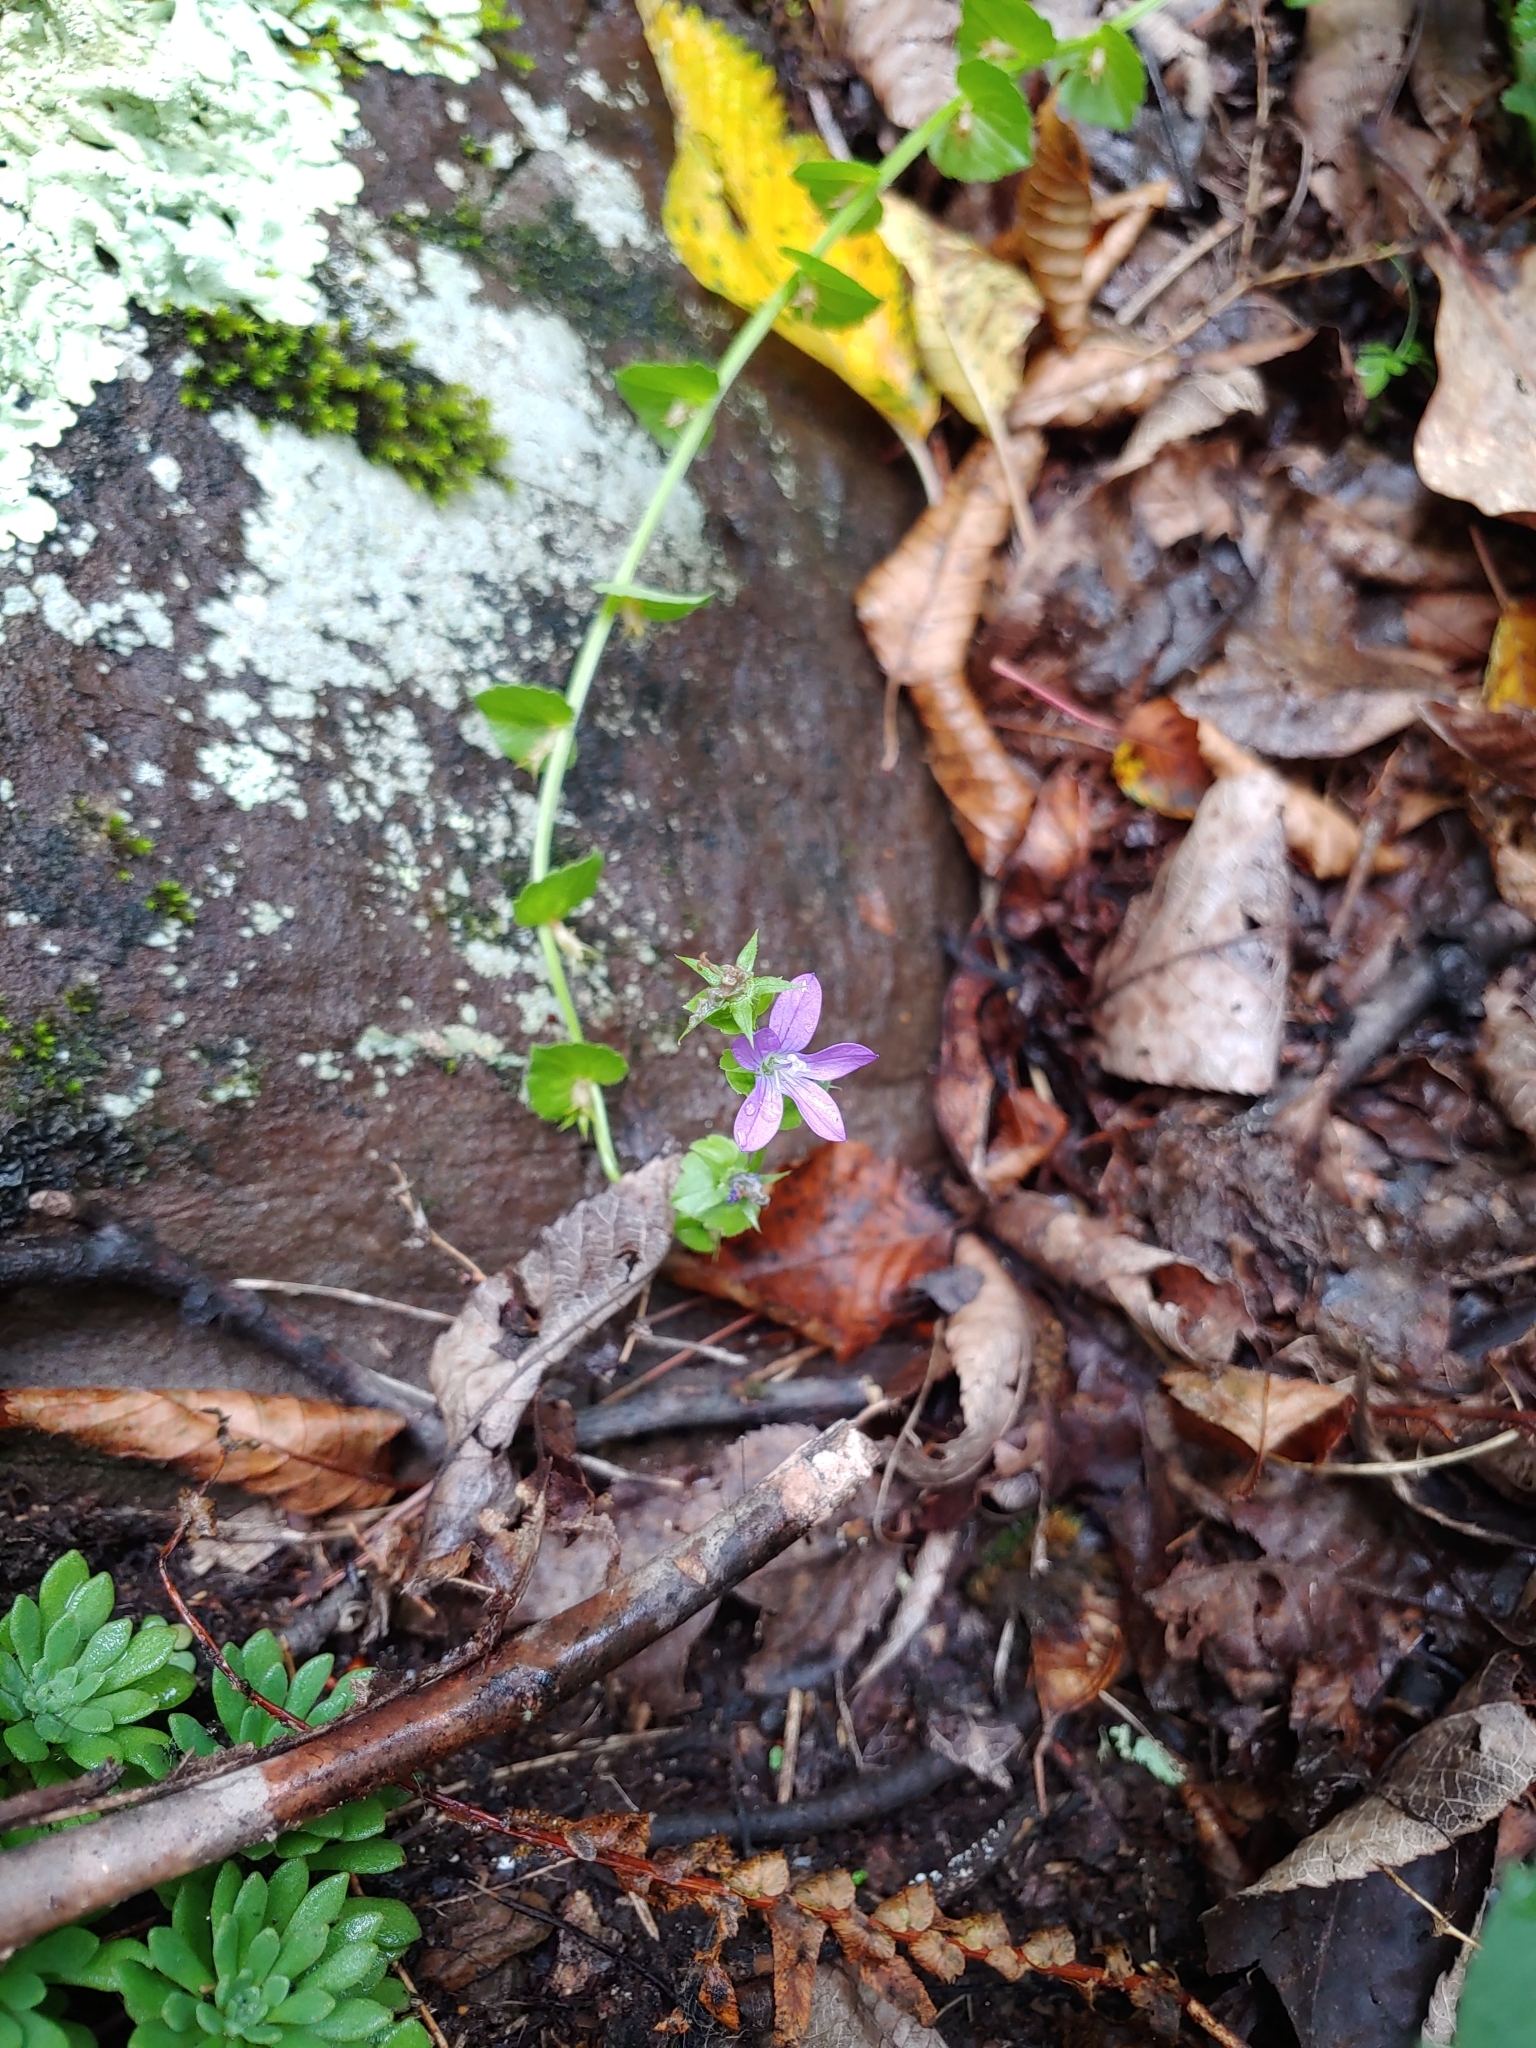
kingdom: Plantae
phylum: Tracheophyta
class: Magnoliopsida
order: Asterales
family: Campanulaceae
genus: Triodanis
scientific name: Triodanis biflora
